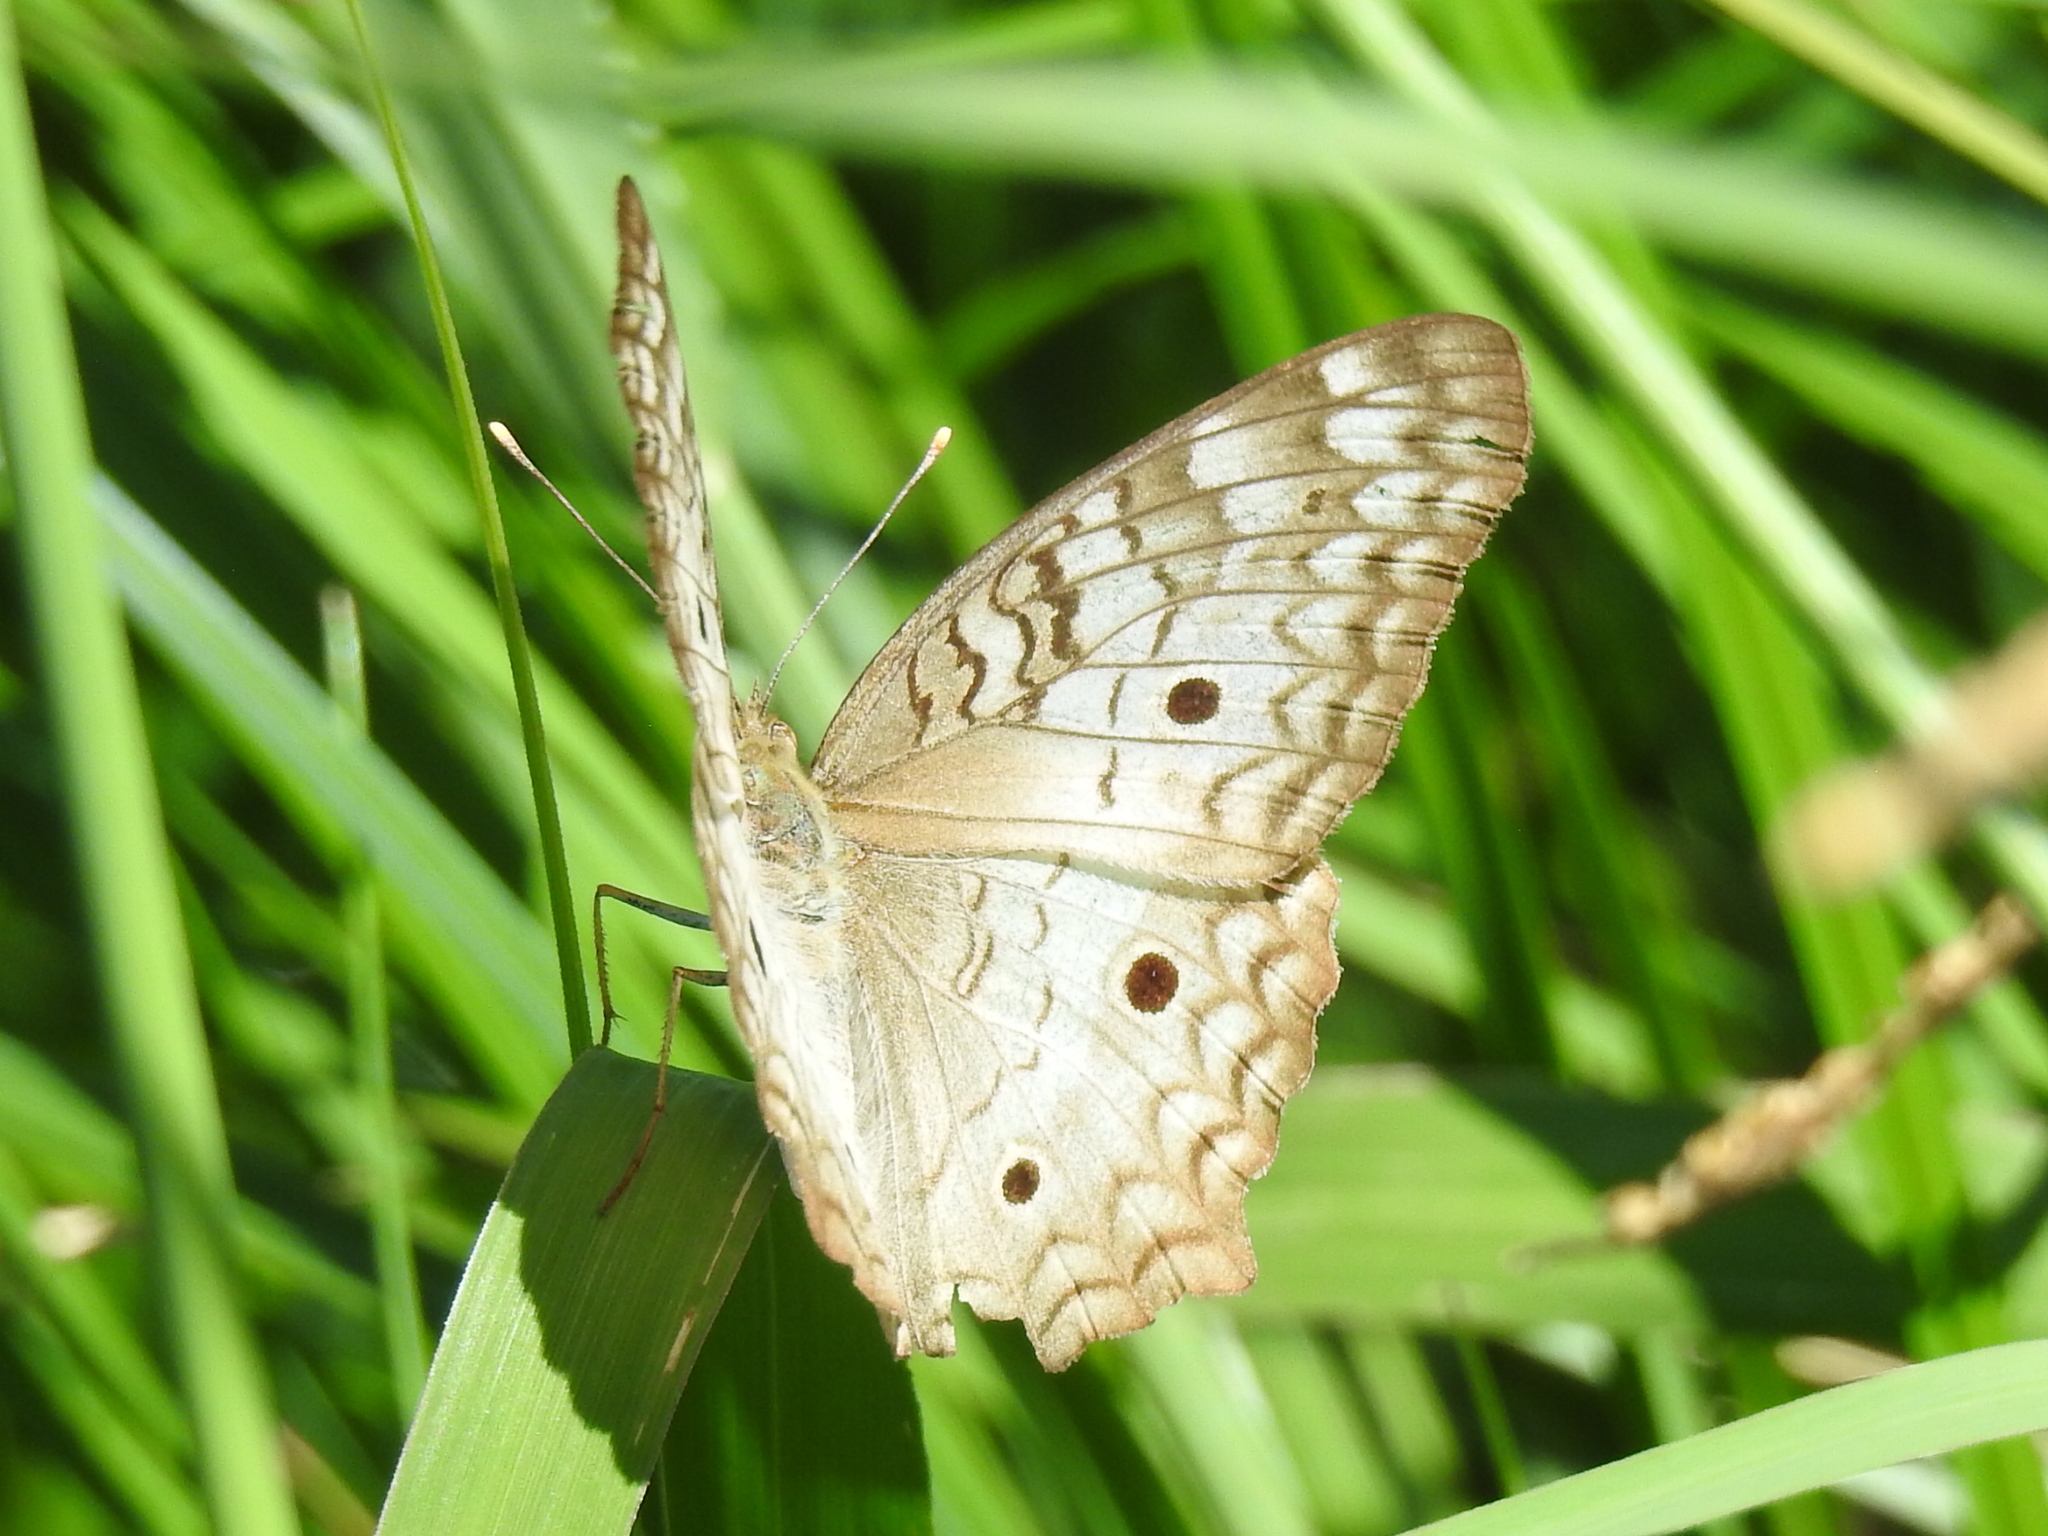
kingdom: Animalia
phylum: Arthropoda
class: Insecta
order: Lepidoptera
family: Nymphalidae
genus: Anartia
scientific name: Anartia jatrophae
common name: White peacock
